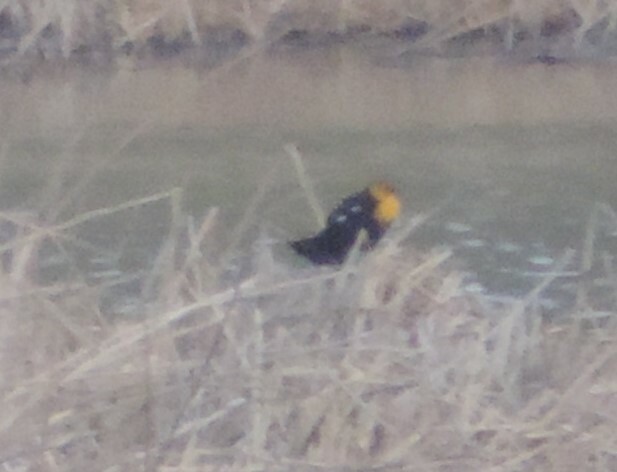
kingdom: Animalia
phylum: Chordata
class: Aves
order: Passeriformes
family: Icteridae
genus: Xanthocephalus
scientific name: Xanthocephalus xanthocephalus
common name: Yellow-headed blackbird
